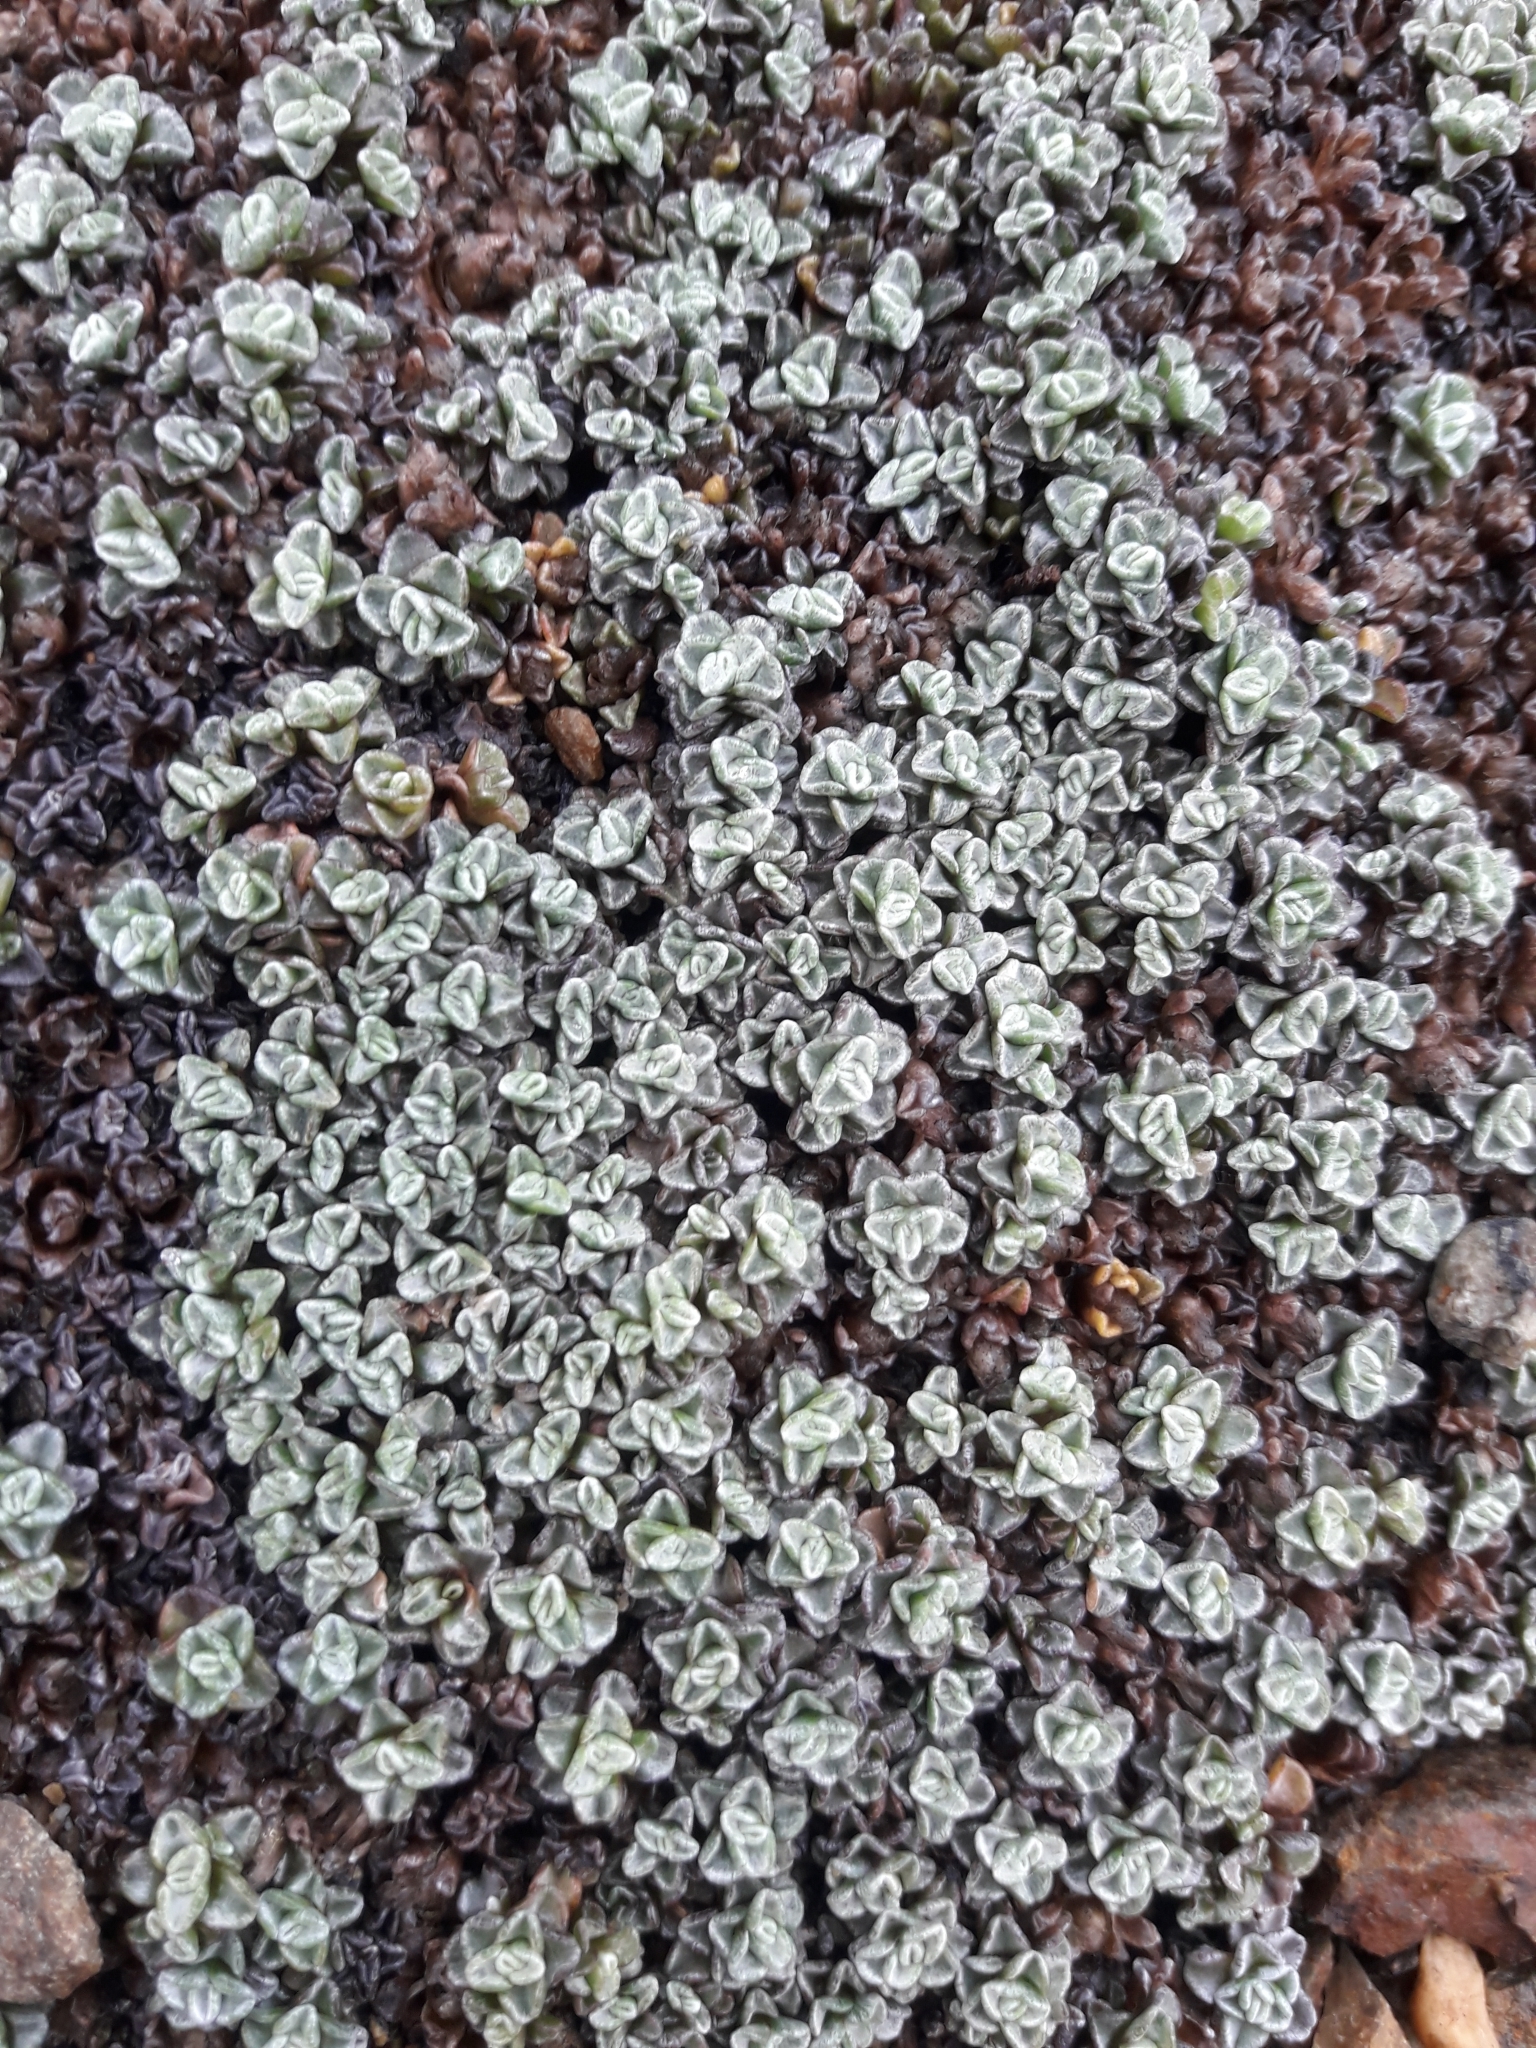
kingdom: Plantae
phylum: Tracheophyta
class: Magnoliopsida
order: Asterales
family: Asteraceae
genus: Raoulia
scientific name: Raoulia australis
